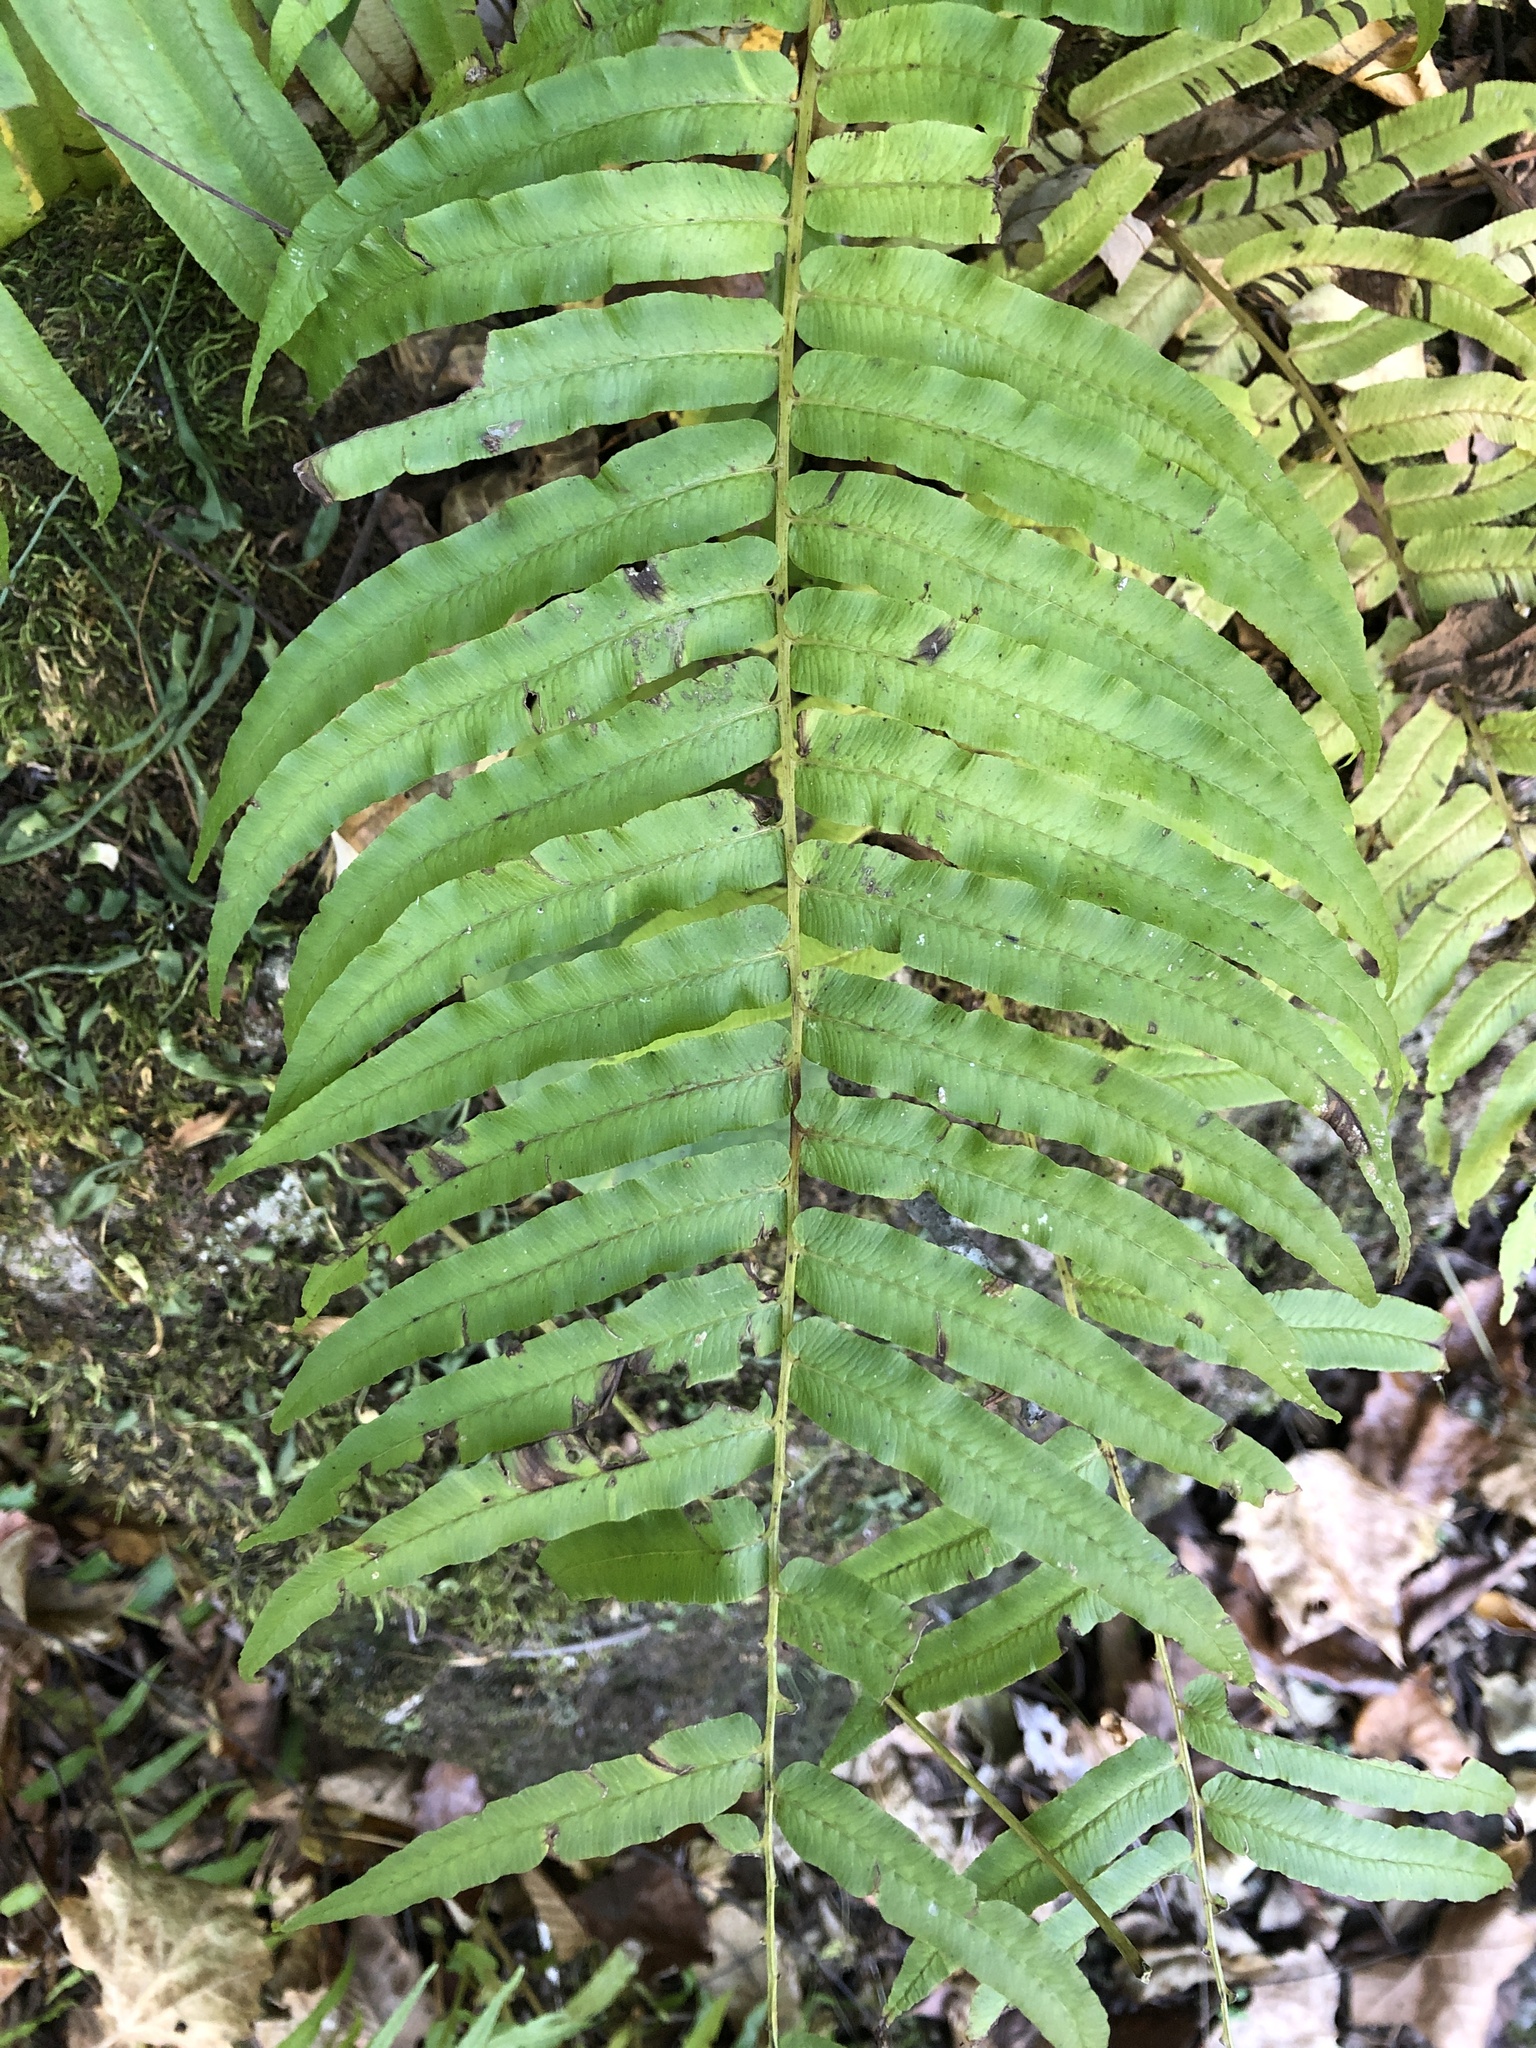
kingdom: Plantae
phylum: Tracheophyta
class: Polypodiopsida
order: Polypodiales
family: Diplaziopsidaceae
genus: Homalosorus
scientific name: Homalosorus pycnocarpos
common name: Glade fern
